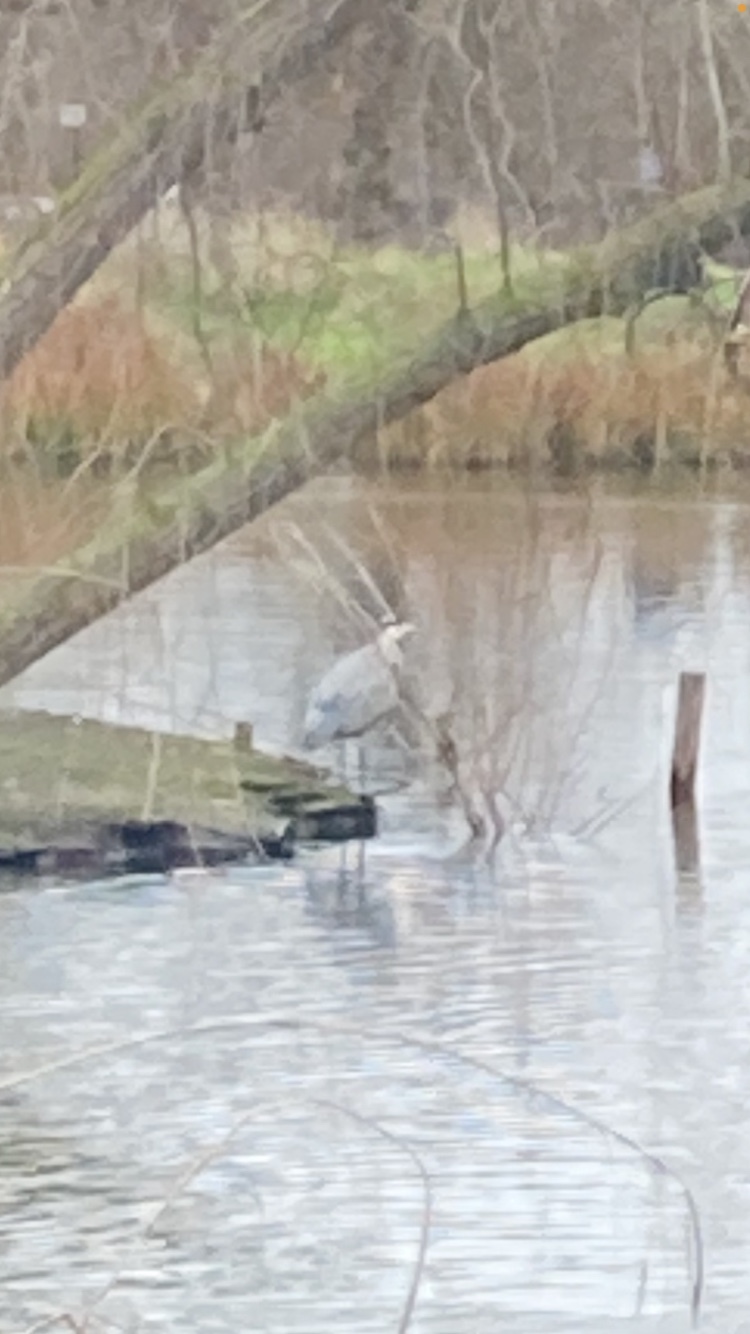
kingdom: Animalia
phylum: Chordata
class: Aves
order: Pelecaniformes
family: Ardeidae
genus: Ardea
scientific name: Ardea cinerea
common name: Grey heron
